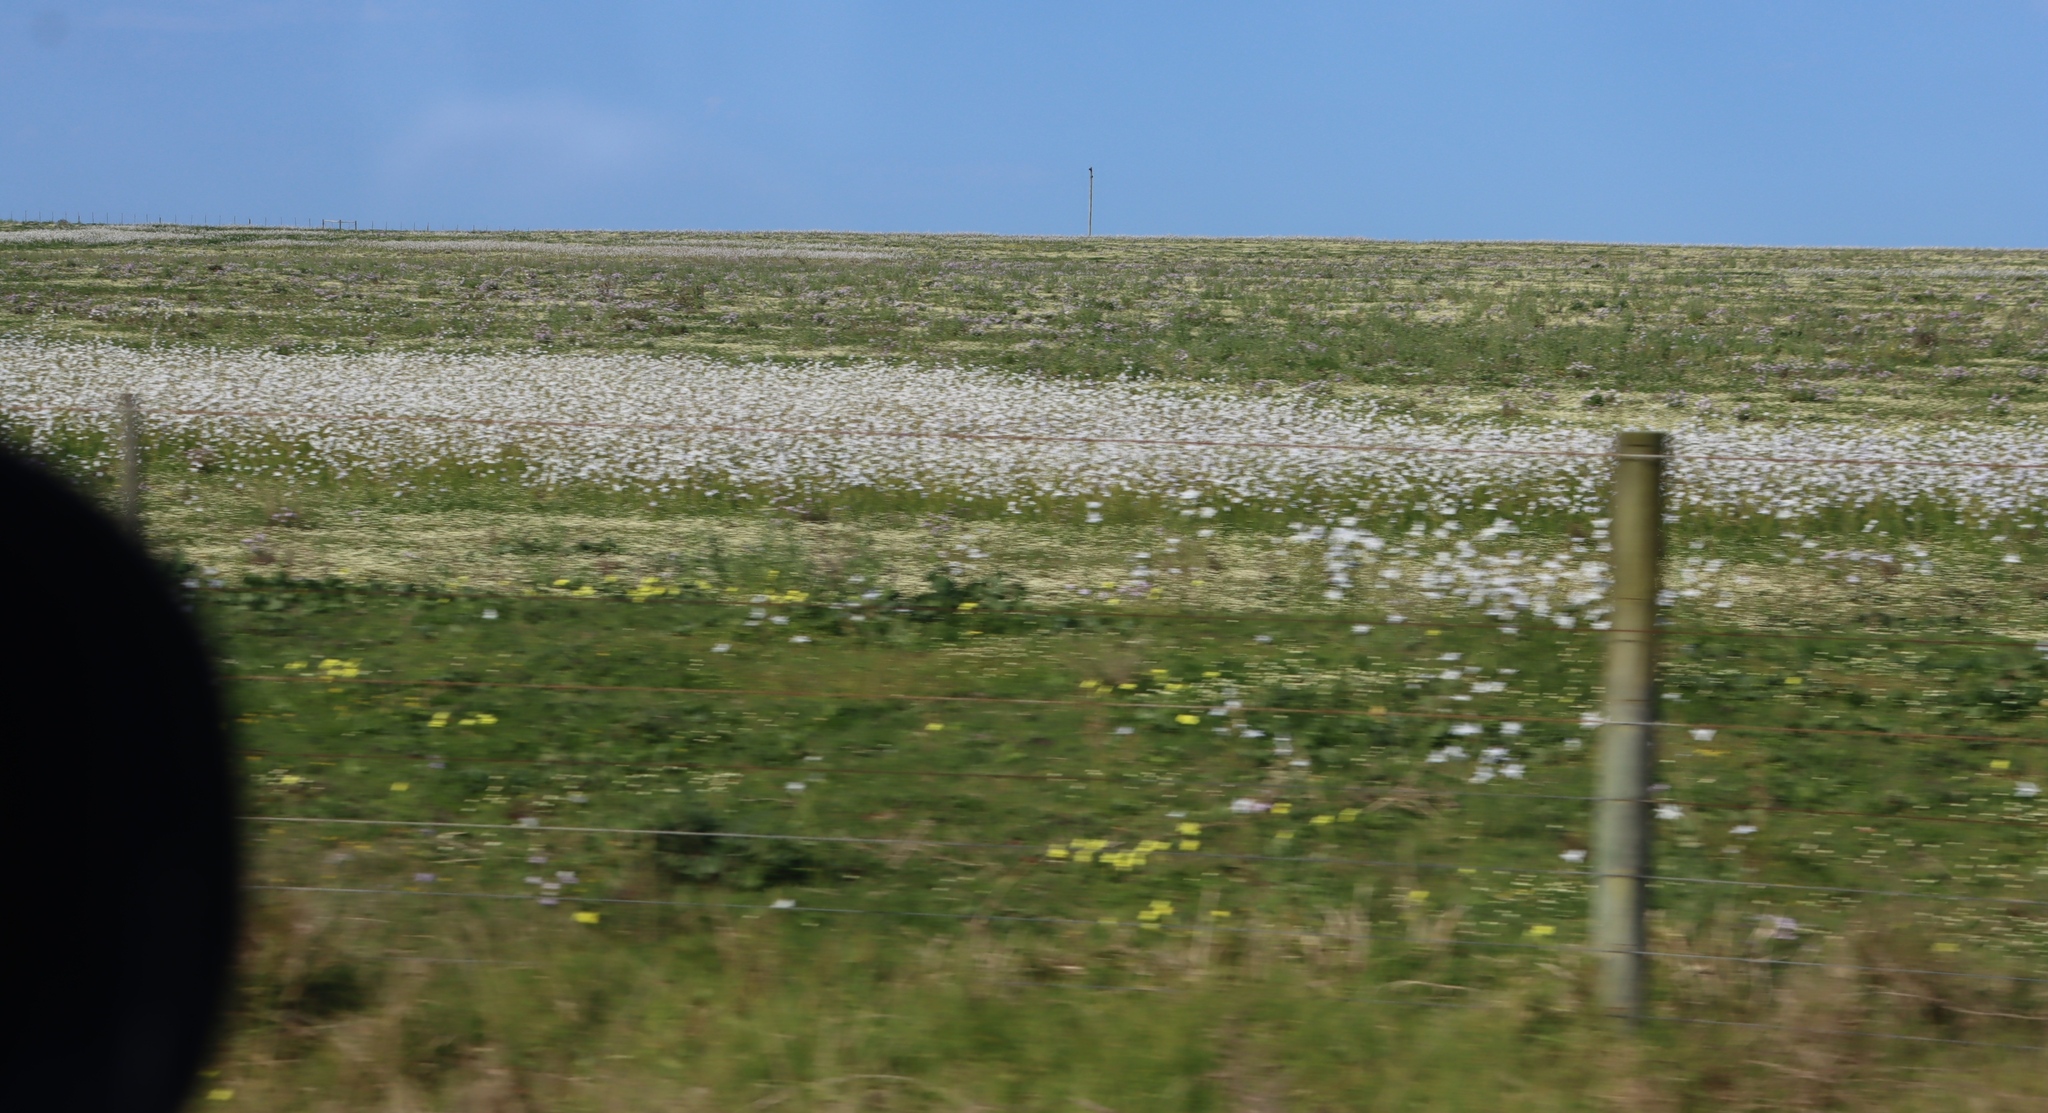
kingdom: Plantae
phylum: Tracheophyta
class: Liliopsida
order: Asparagales
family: Iridaceae
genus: Moraea
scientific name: Moraea polyanthos
